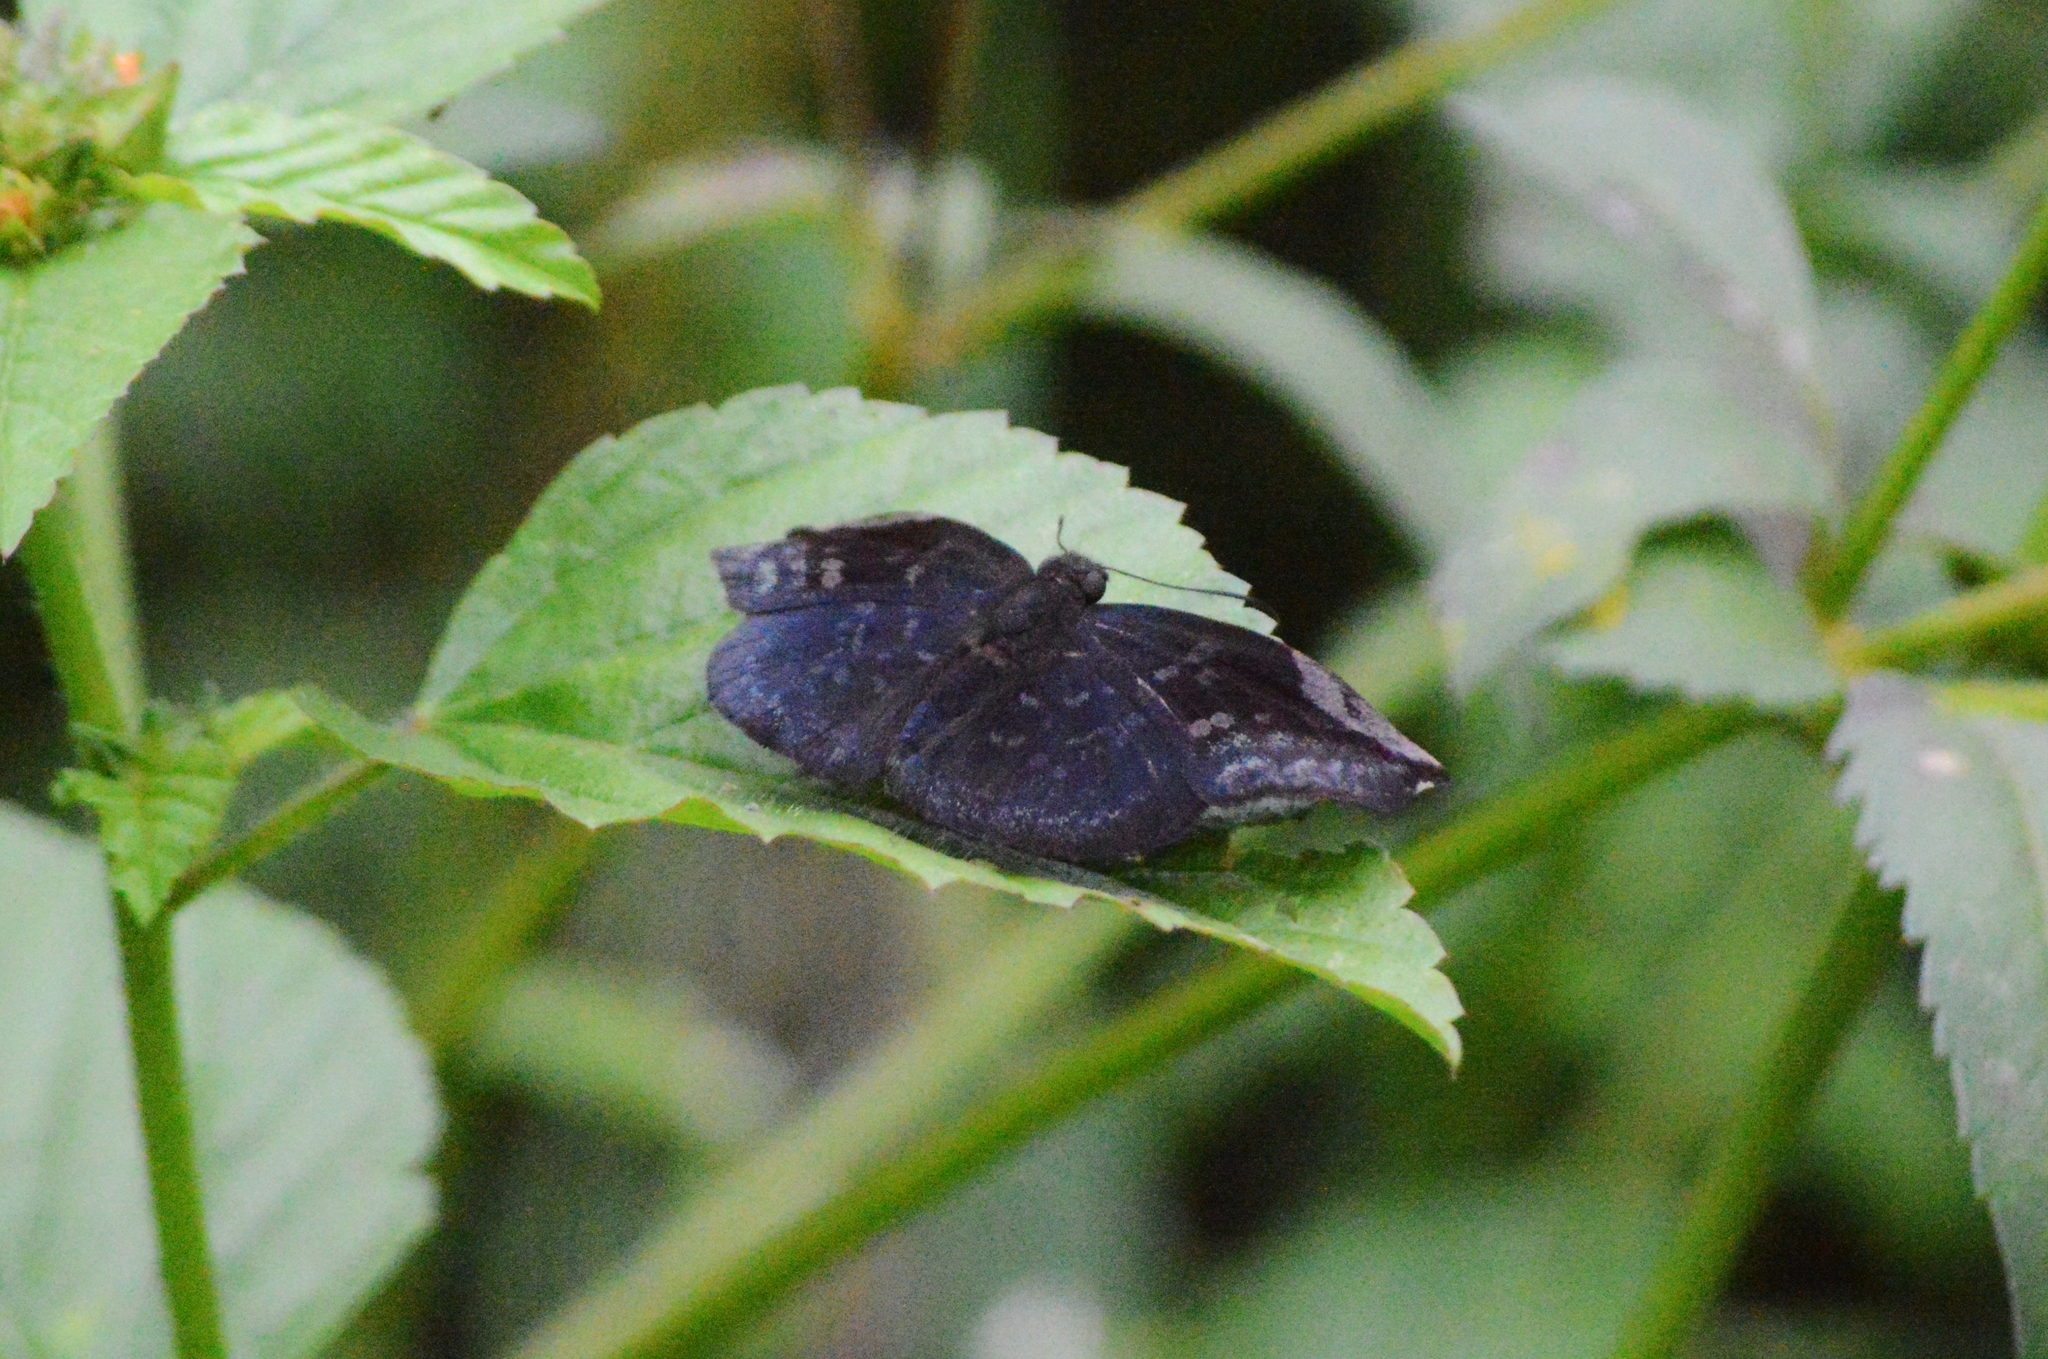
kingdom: Animalia
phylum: Arthropoda
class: Insecta
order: Lepidoptera
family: Hesperiidae
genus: Achlyodes
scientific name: Achlyodes thraso
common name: Sickle-winged skipper
